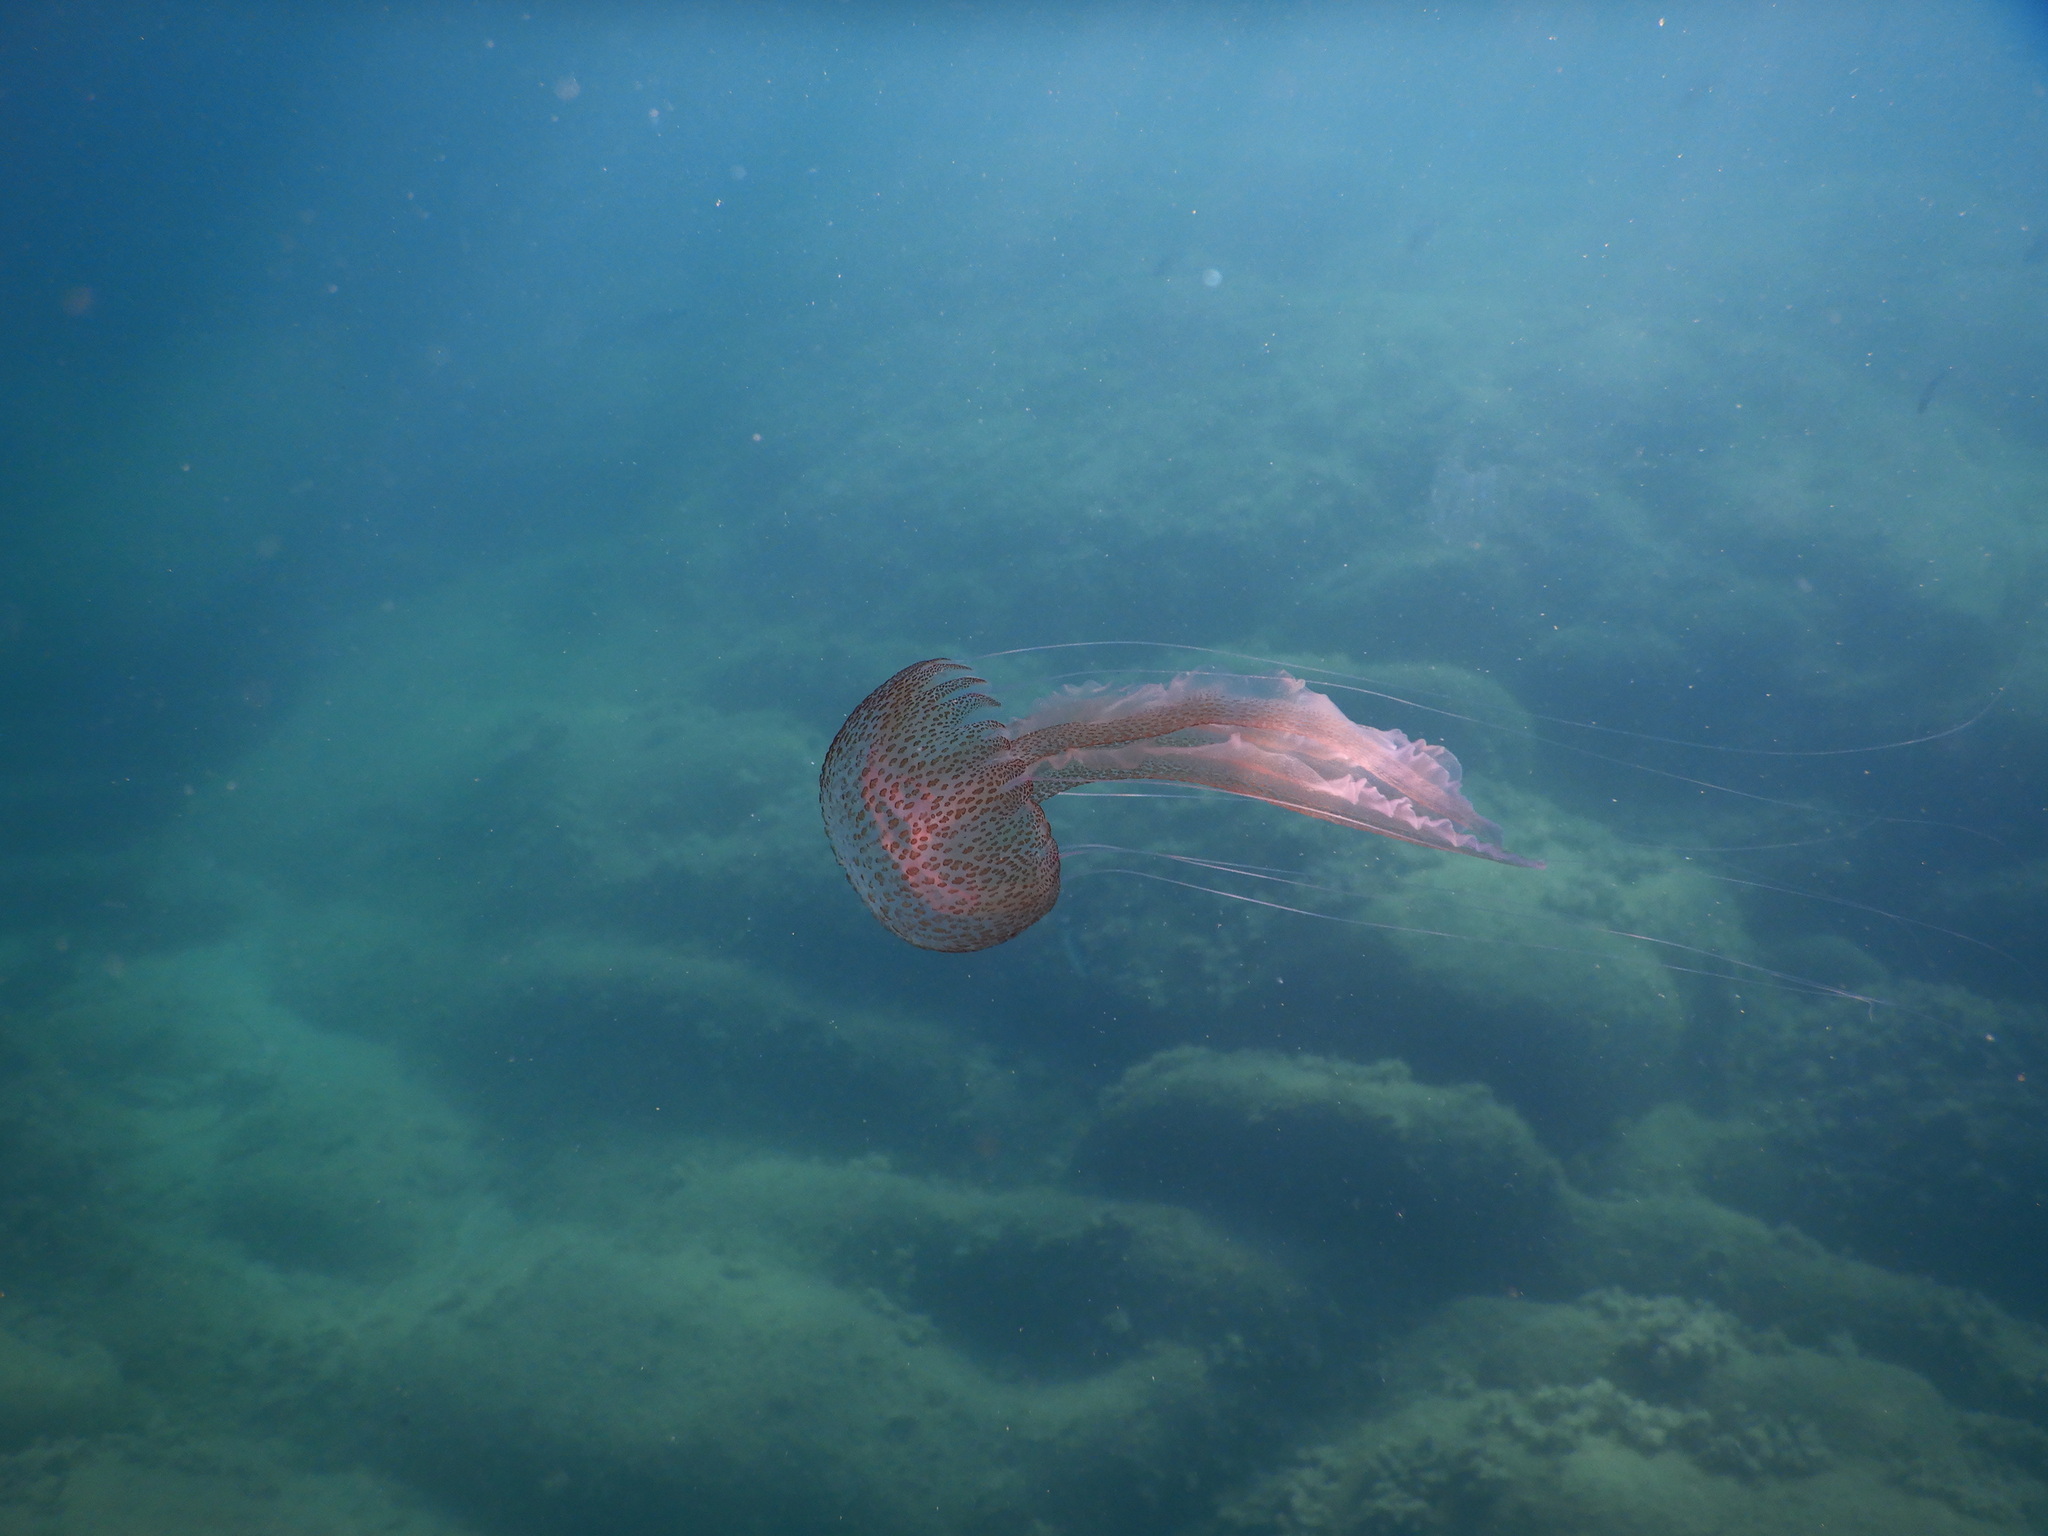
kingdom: Animalia
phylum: Cnidaria
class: Scyphozoa
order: Semaeostomeae
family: Pelagiidae
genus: Pelagia
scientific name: Pelagia noctiluca
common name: Mauve stinger
